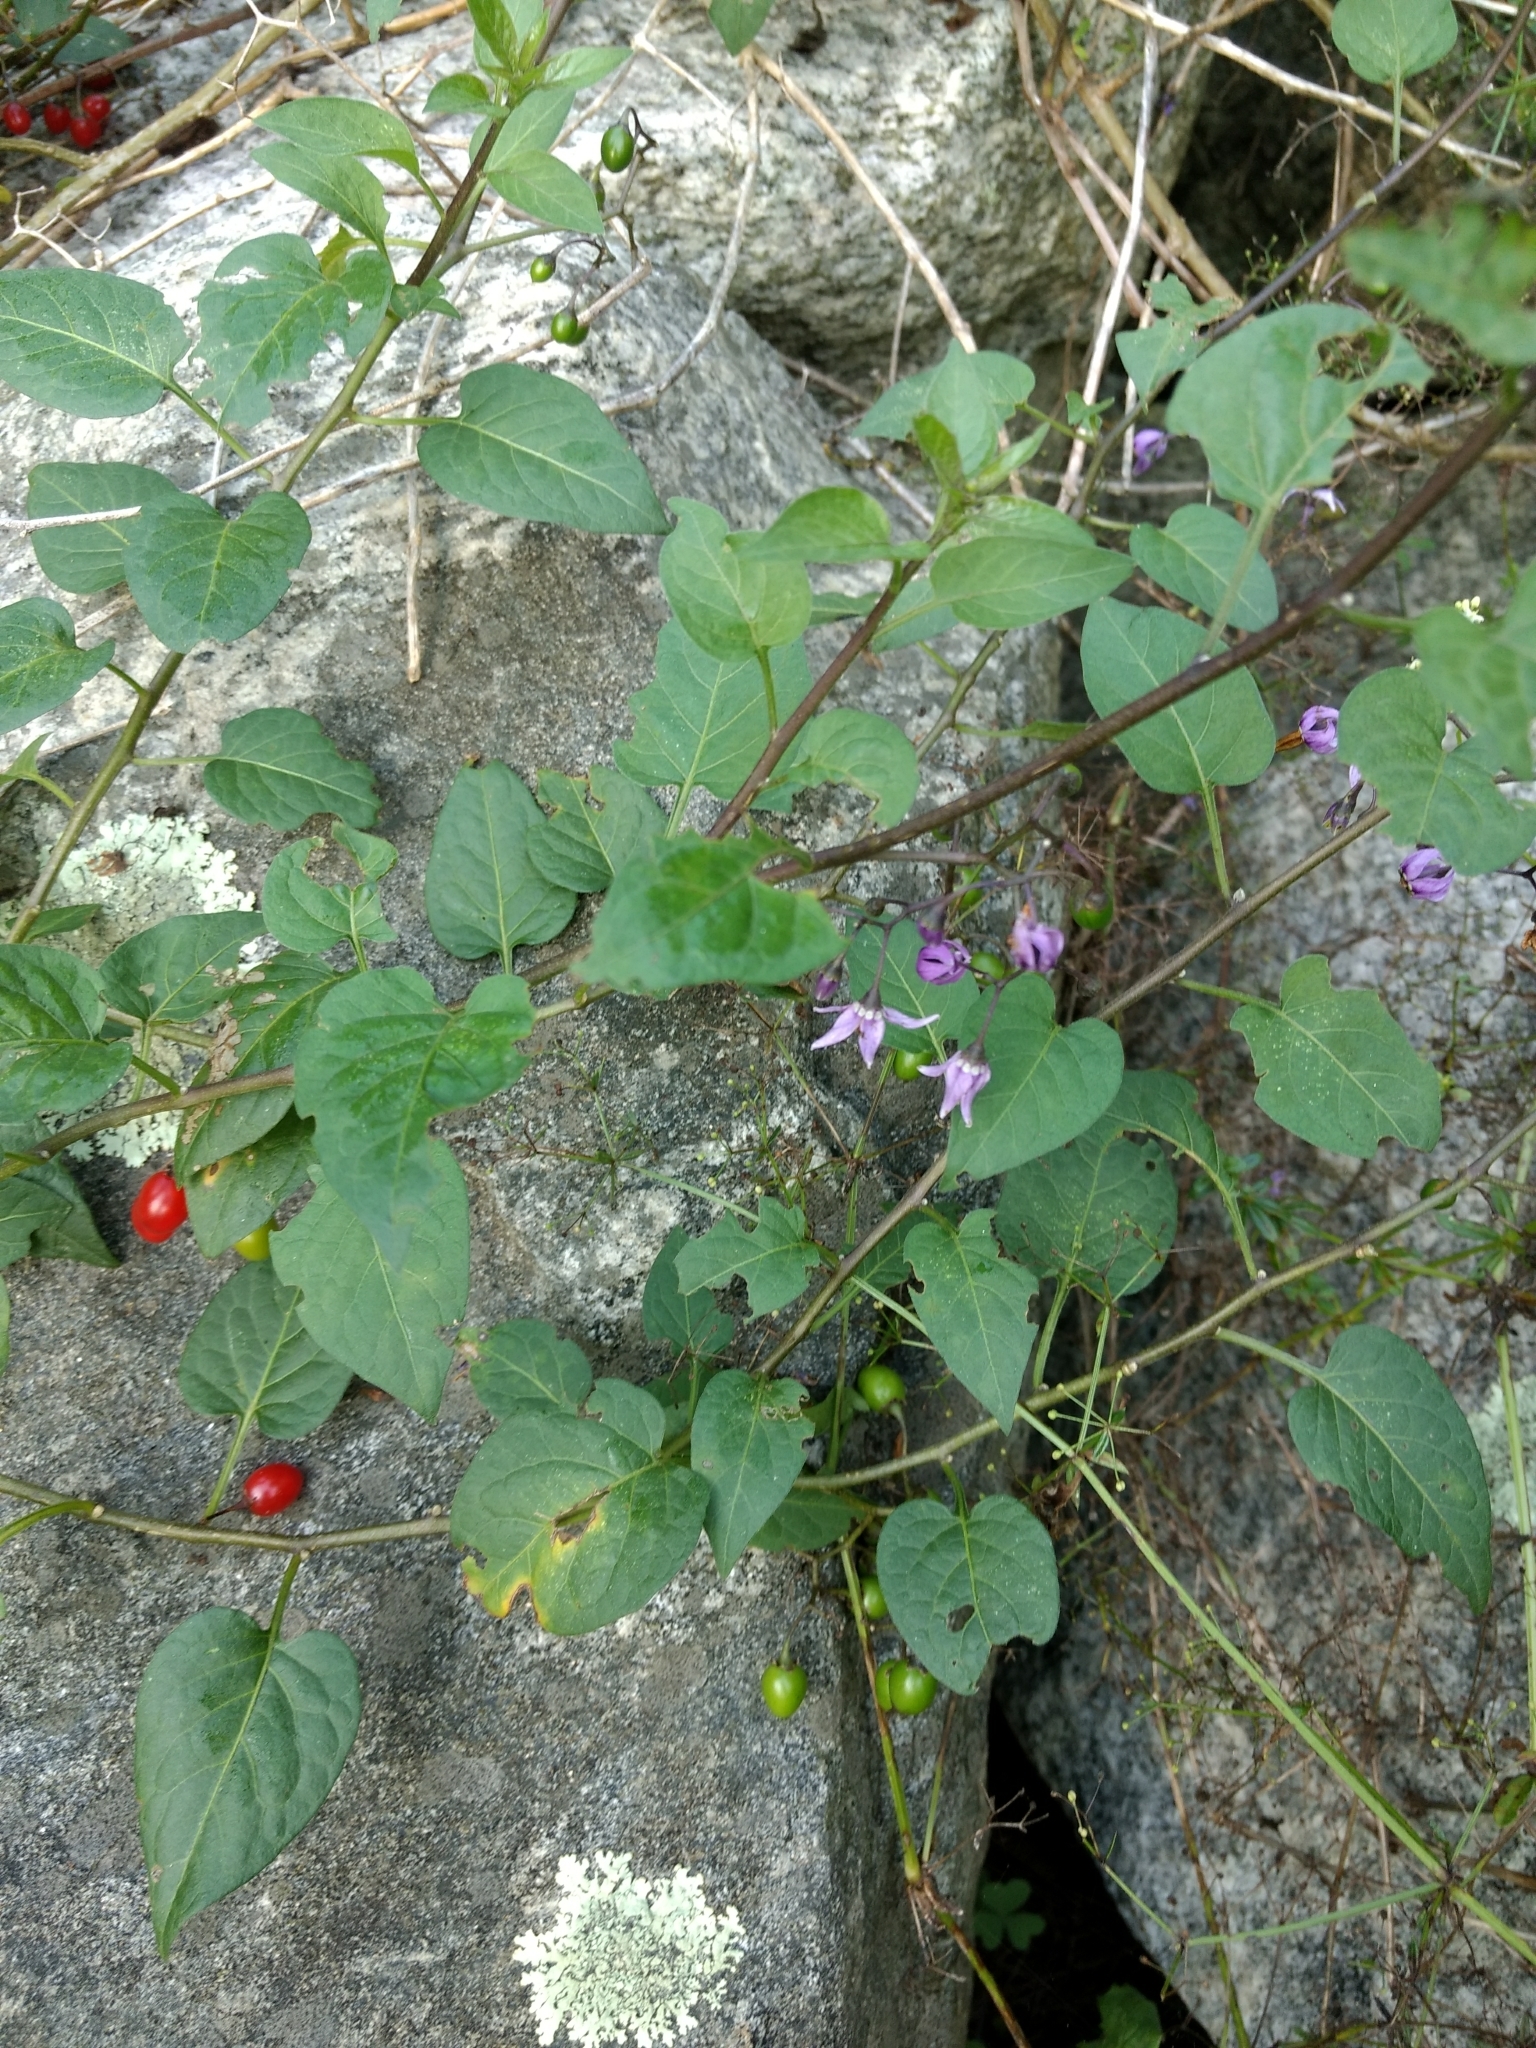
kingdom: Plantae
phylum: Tracheophyta
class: Magnoliopsida
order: Solanales
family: Solanaceae
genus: Solanum
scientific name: Solanum dulcamara
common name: Climbing nightshade
